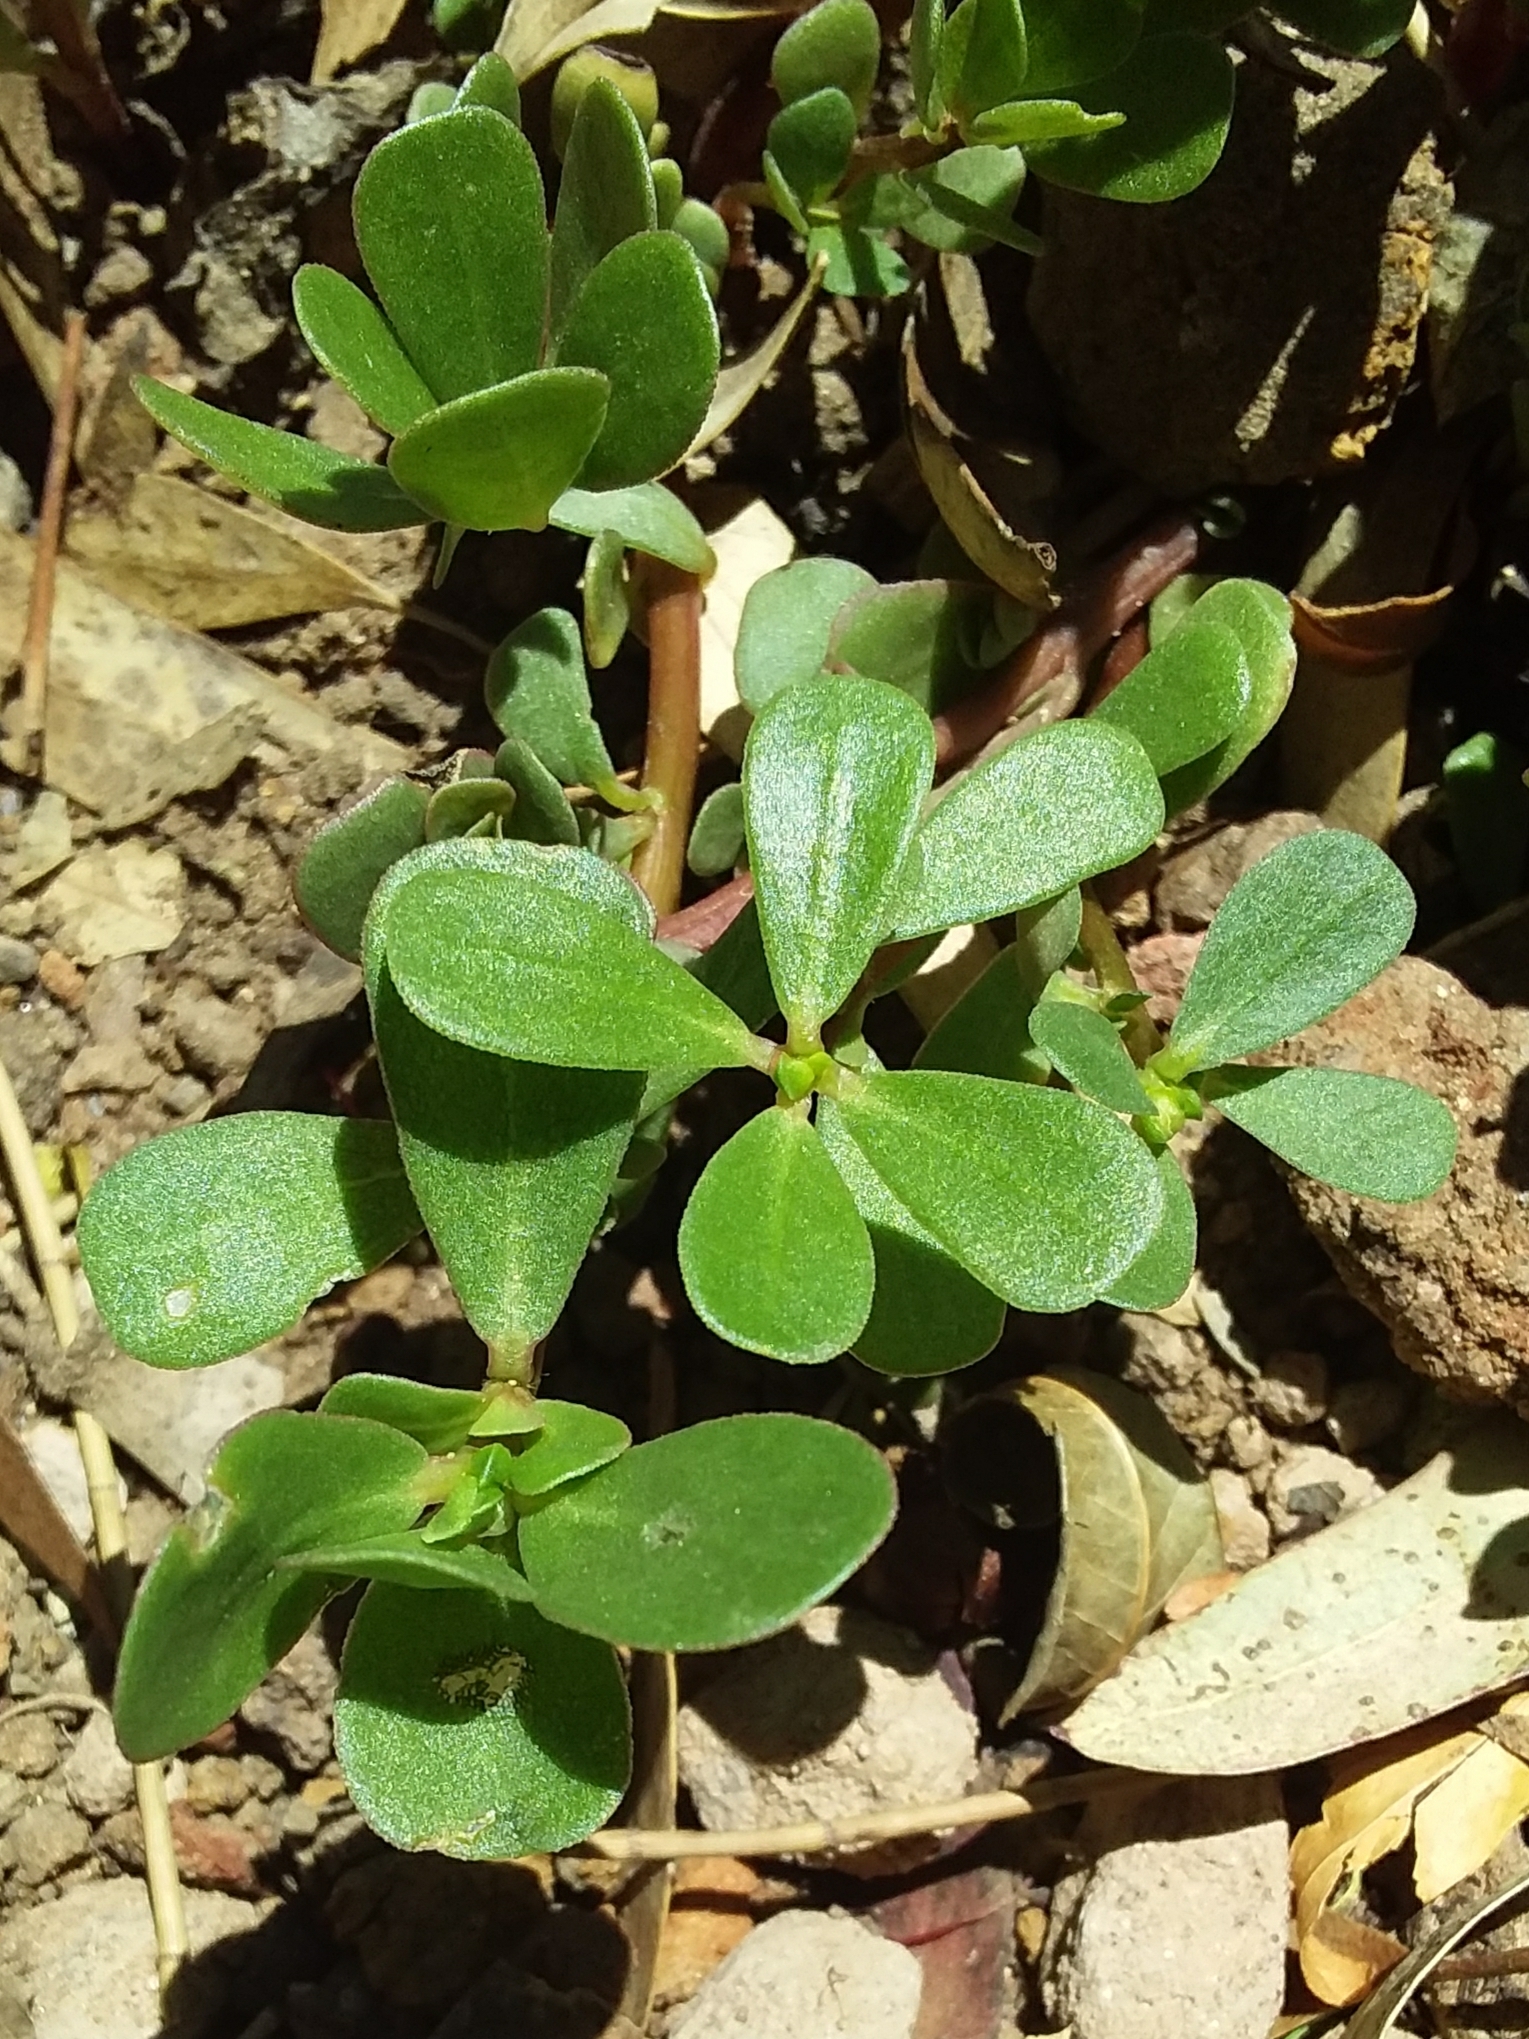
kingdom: Plantae
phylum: Tracheophyta
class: Magnoliopsida
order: Caryophyllales
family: Portulacaceae
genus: Portulaca
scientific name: Portulaca oleracea
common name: Common purslane
